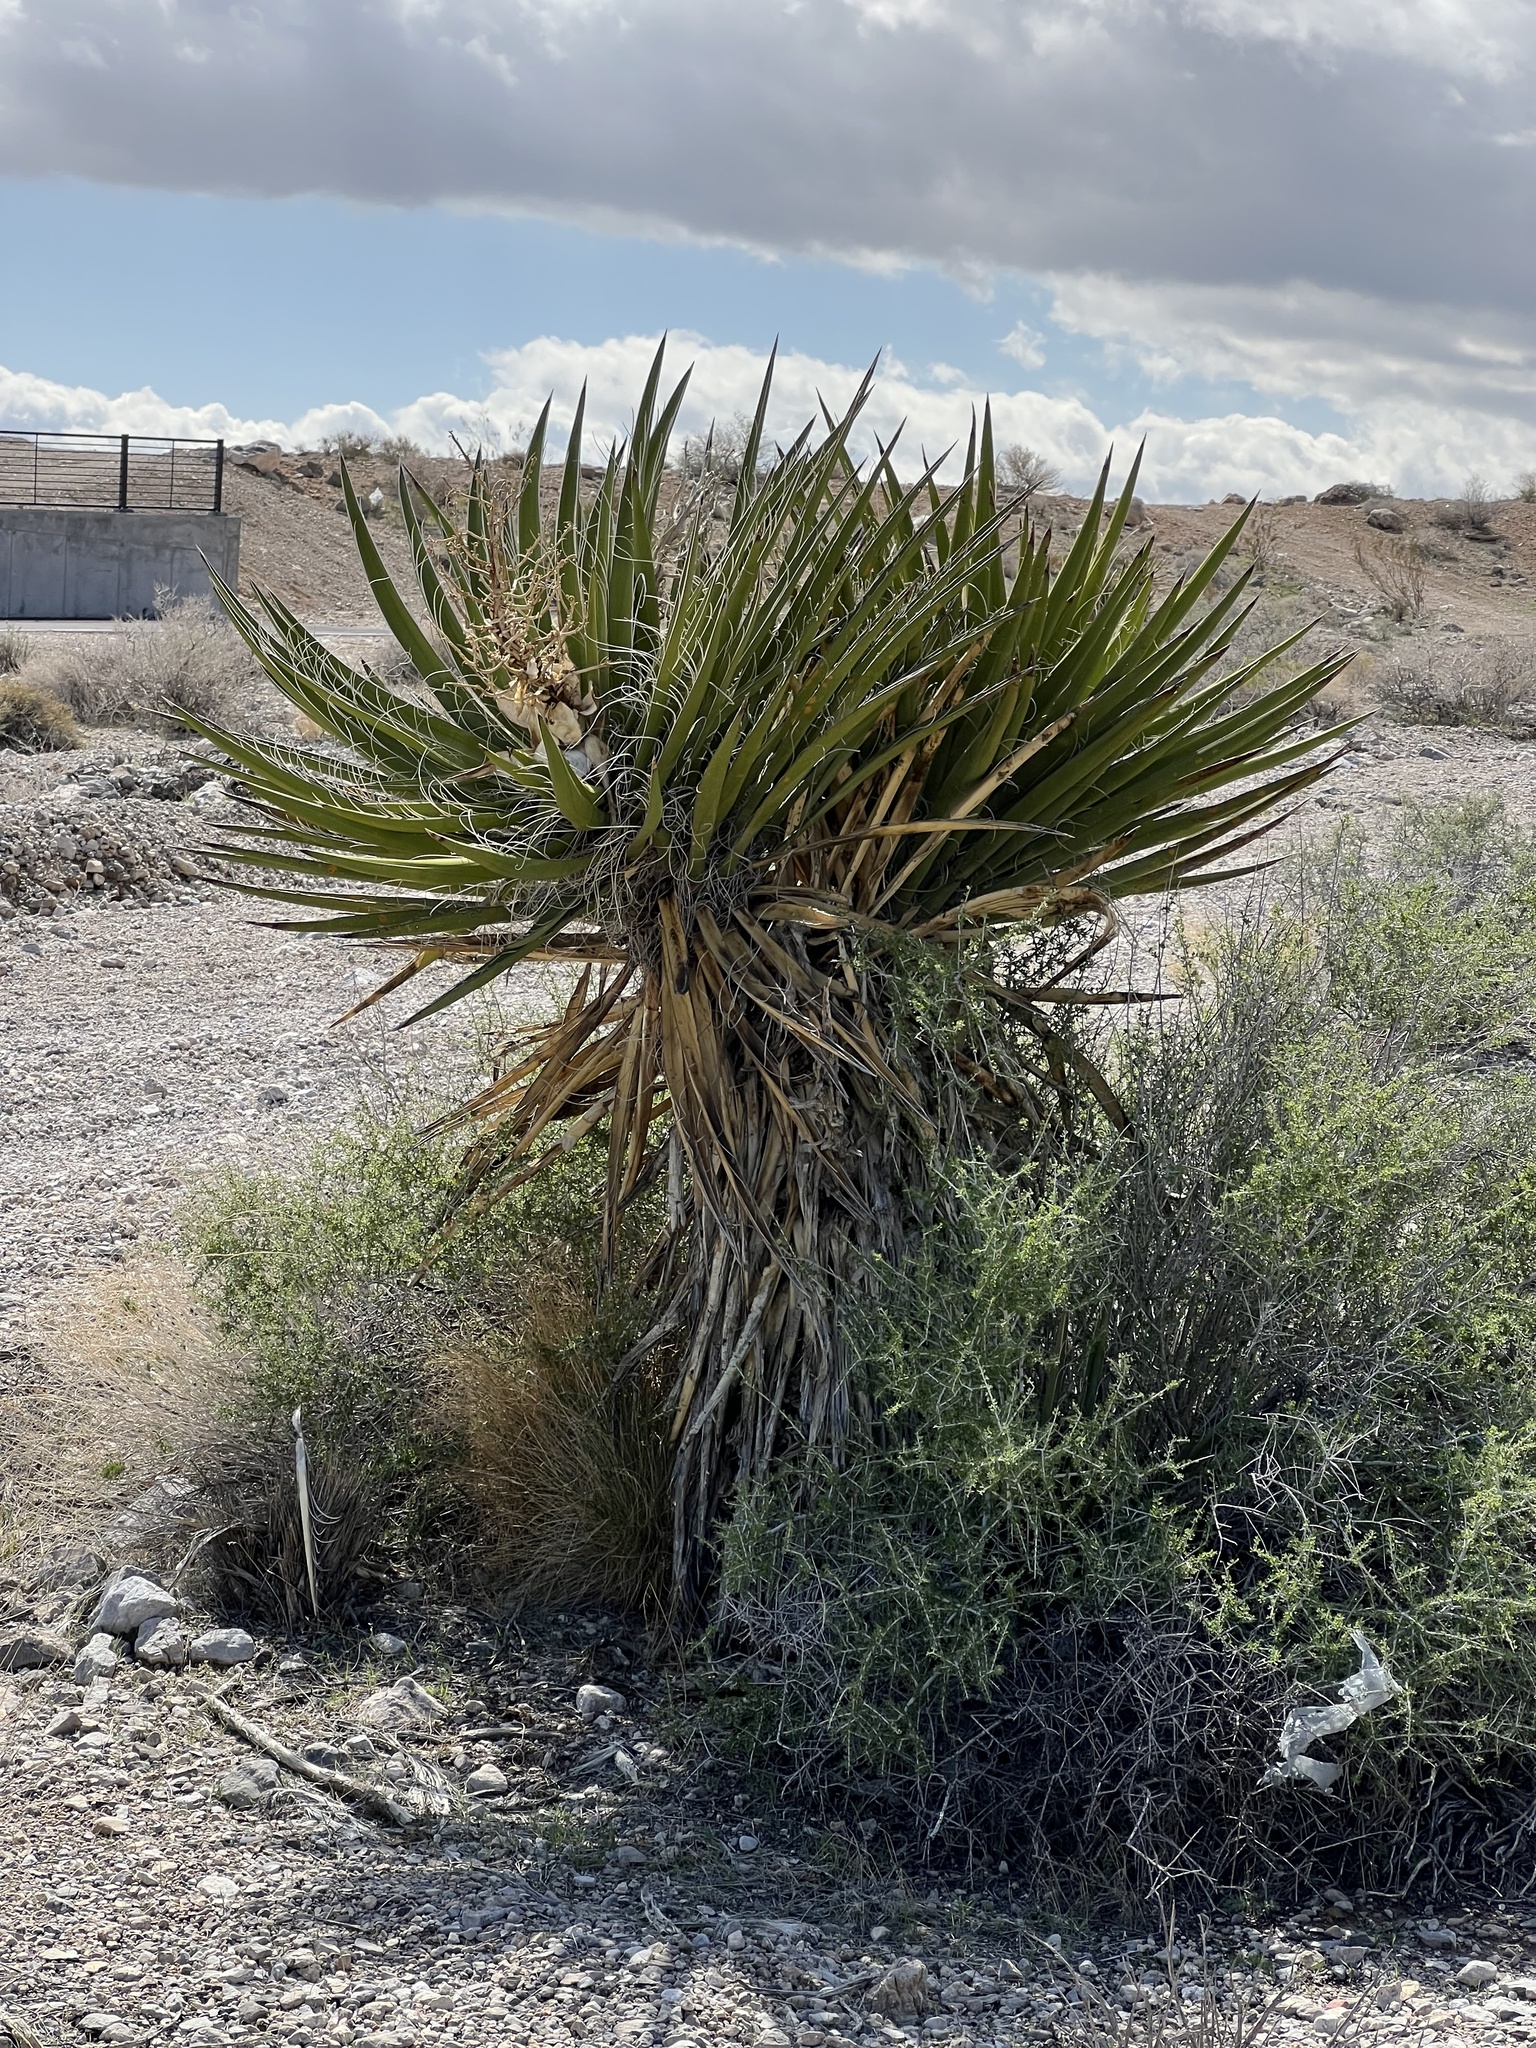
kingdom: Plantae
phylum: Tracheophyta
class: Liliopsida
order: Asparagales
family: Asparagaceae
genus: Yucca
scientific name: Yucca schidigera
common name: Mojave yucca
